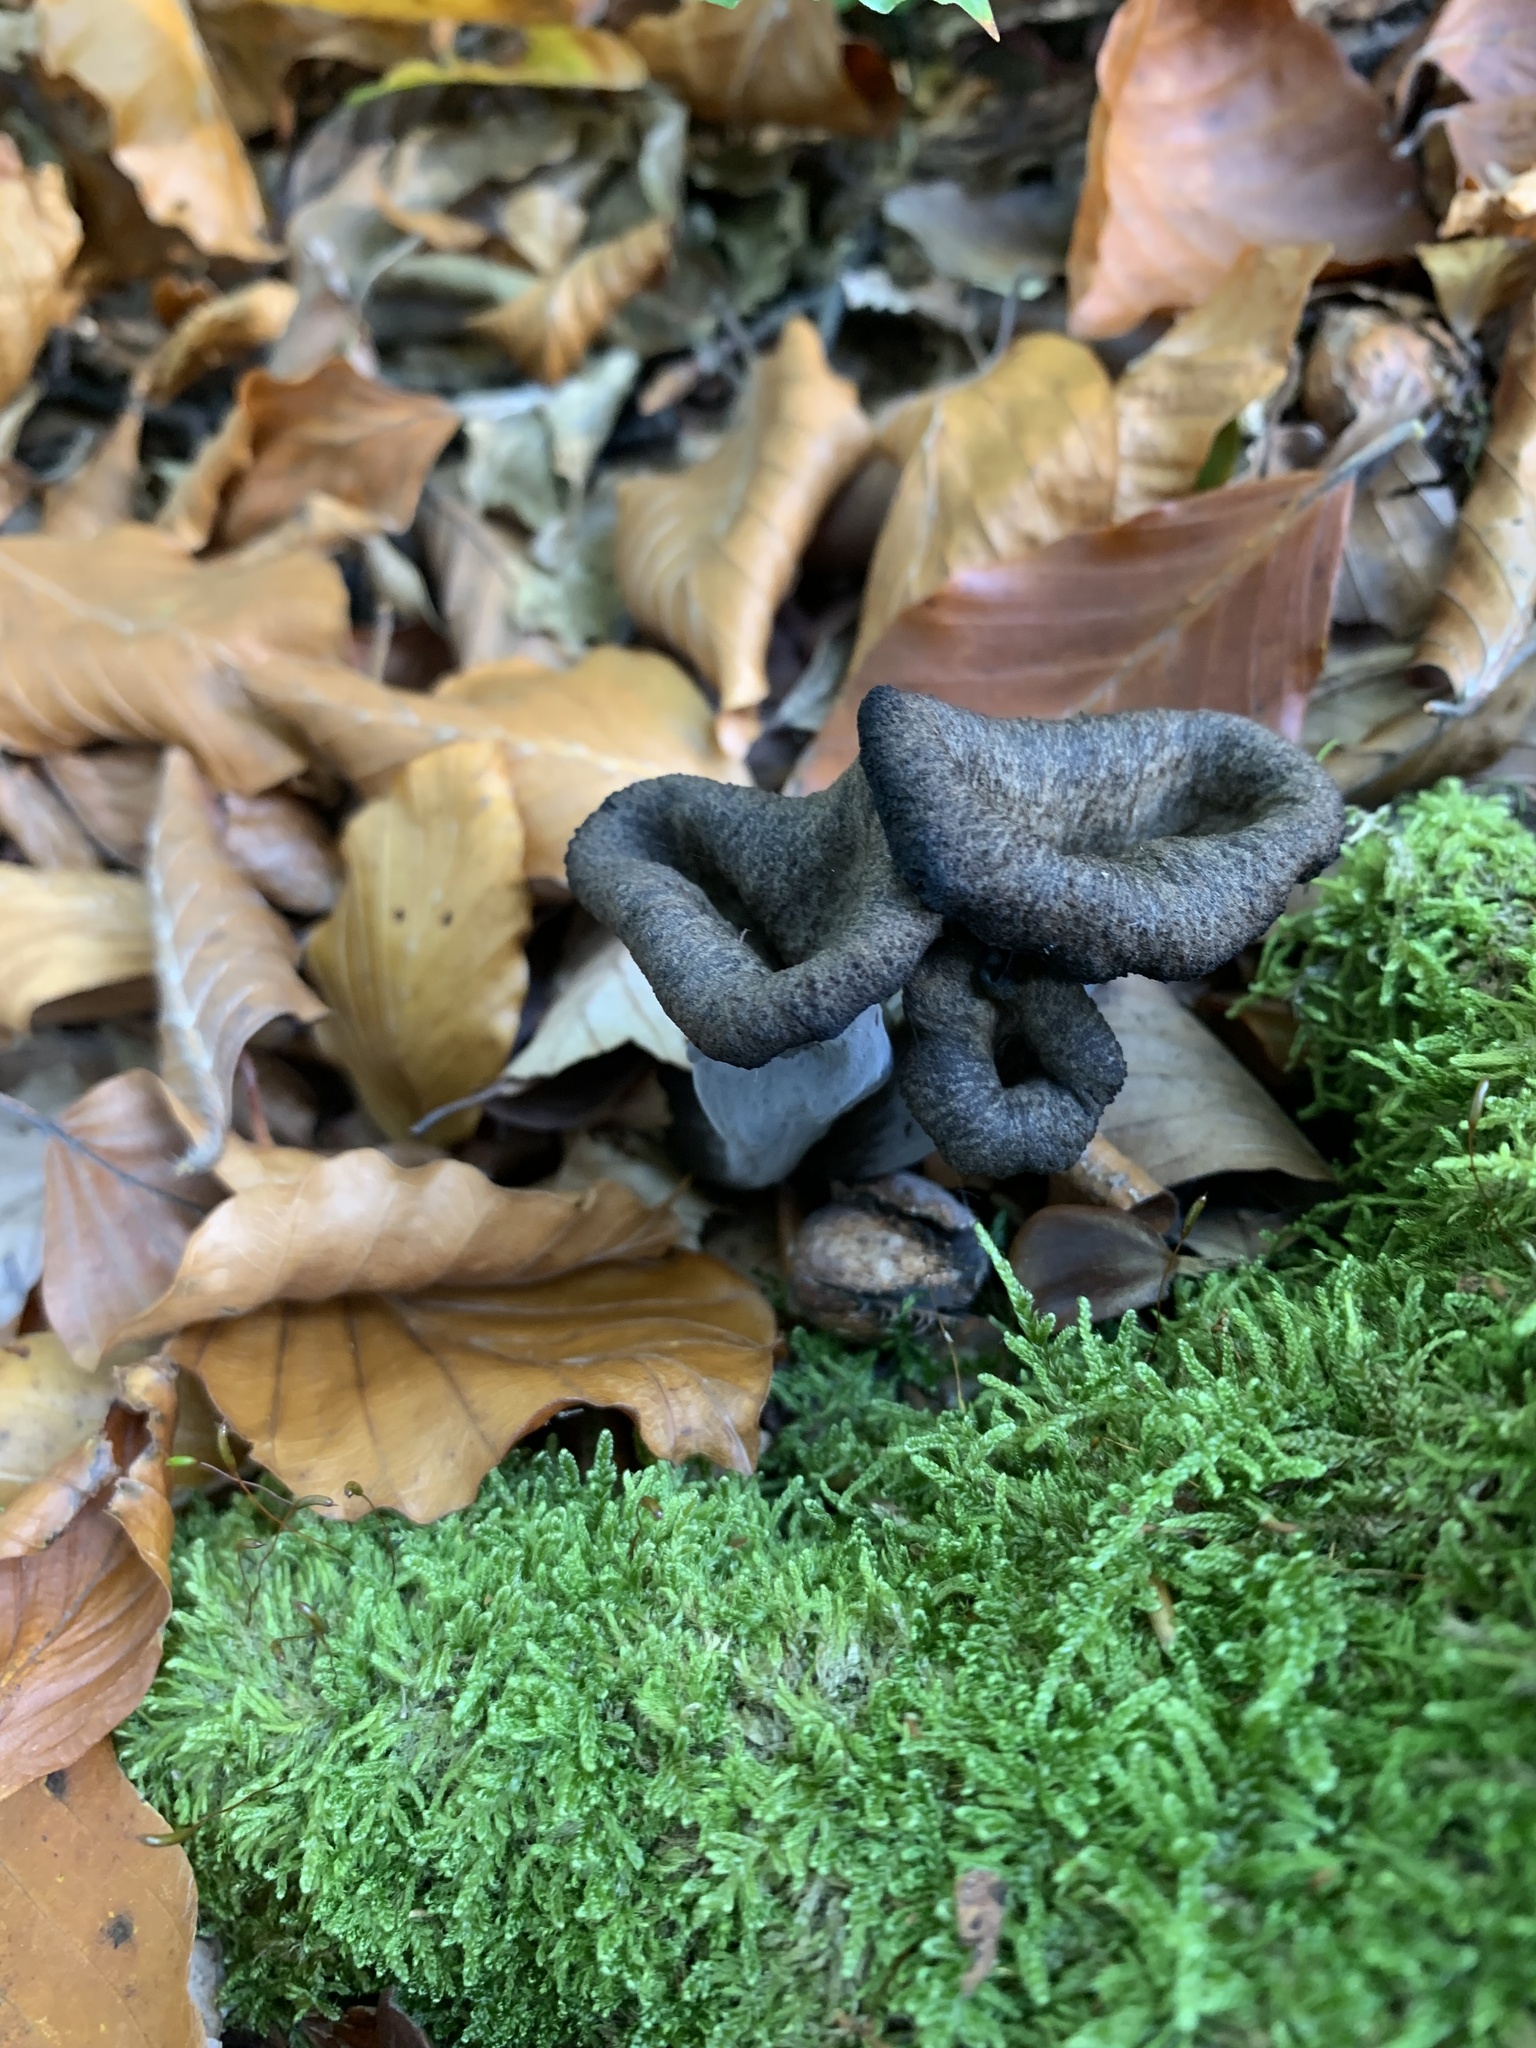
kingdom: Fungi
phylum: Basidiomycota
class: Agaricomycetes
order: Cantharellales
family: Hydnaceae
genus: Craterellus
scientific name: Craterellus cornucopioides
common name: Horn of plenty
